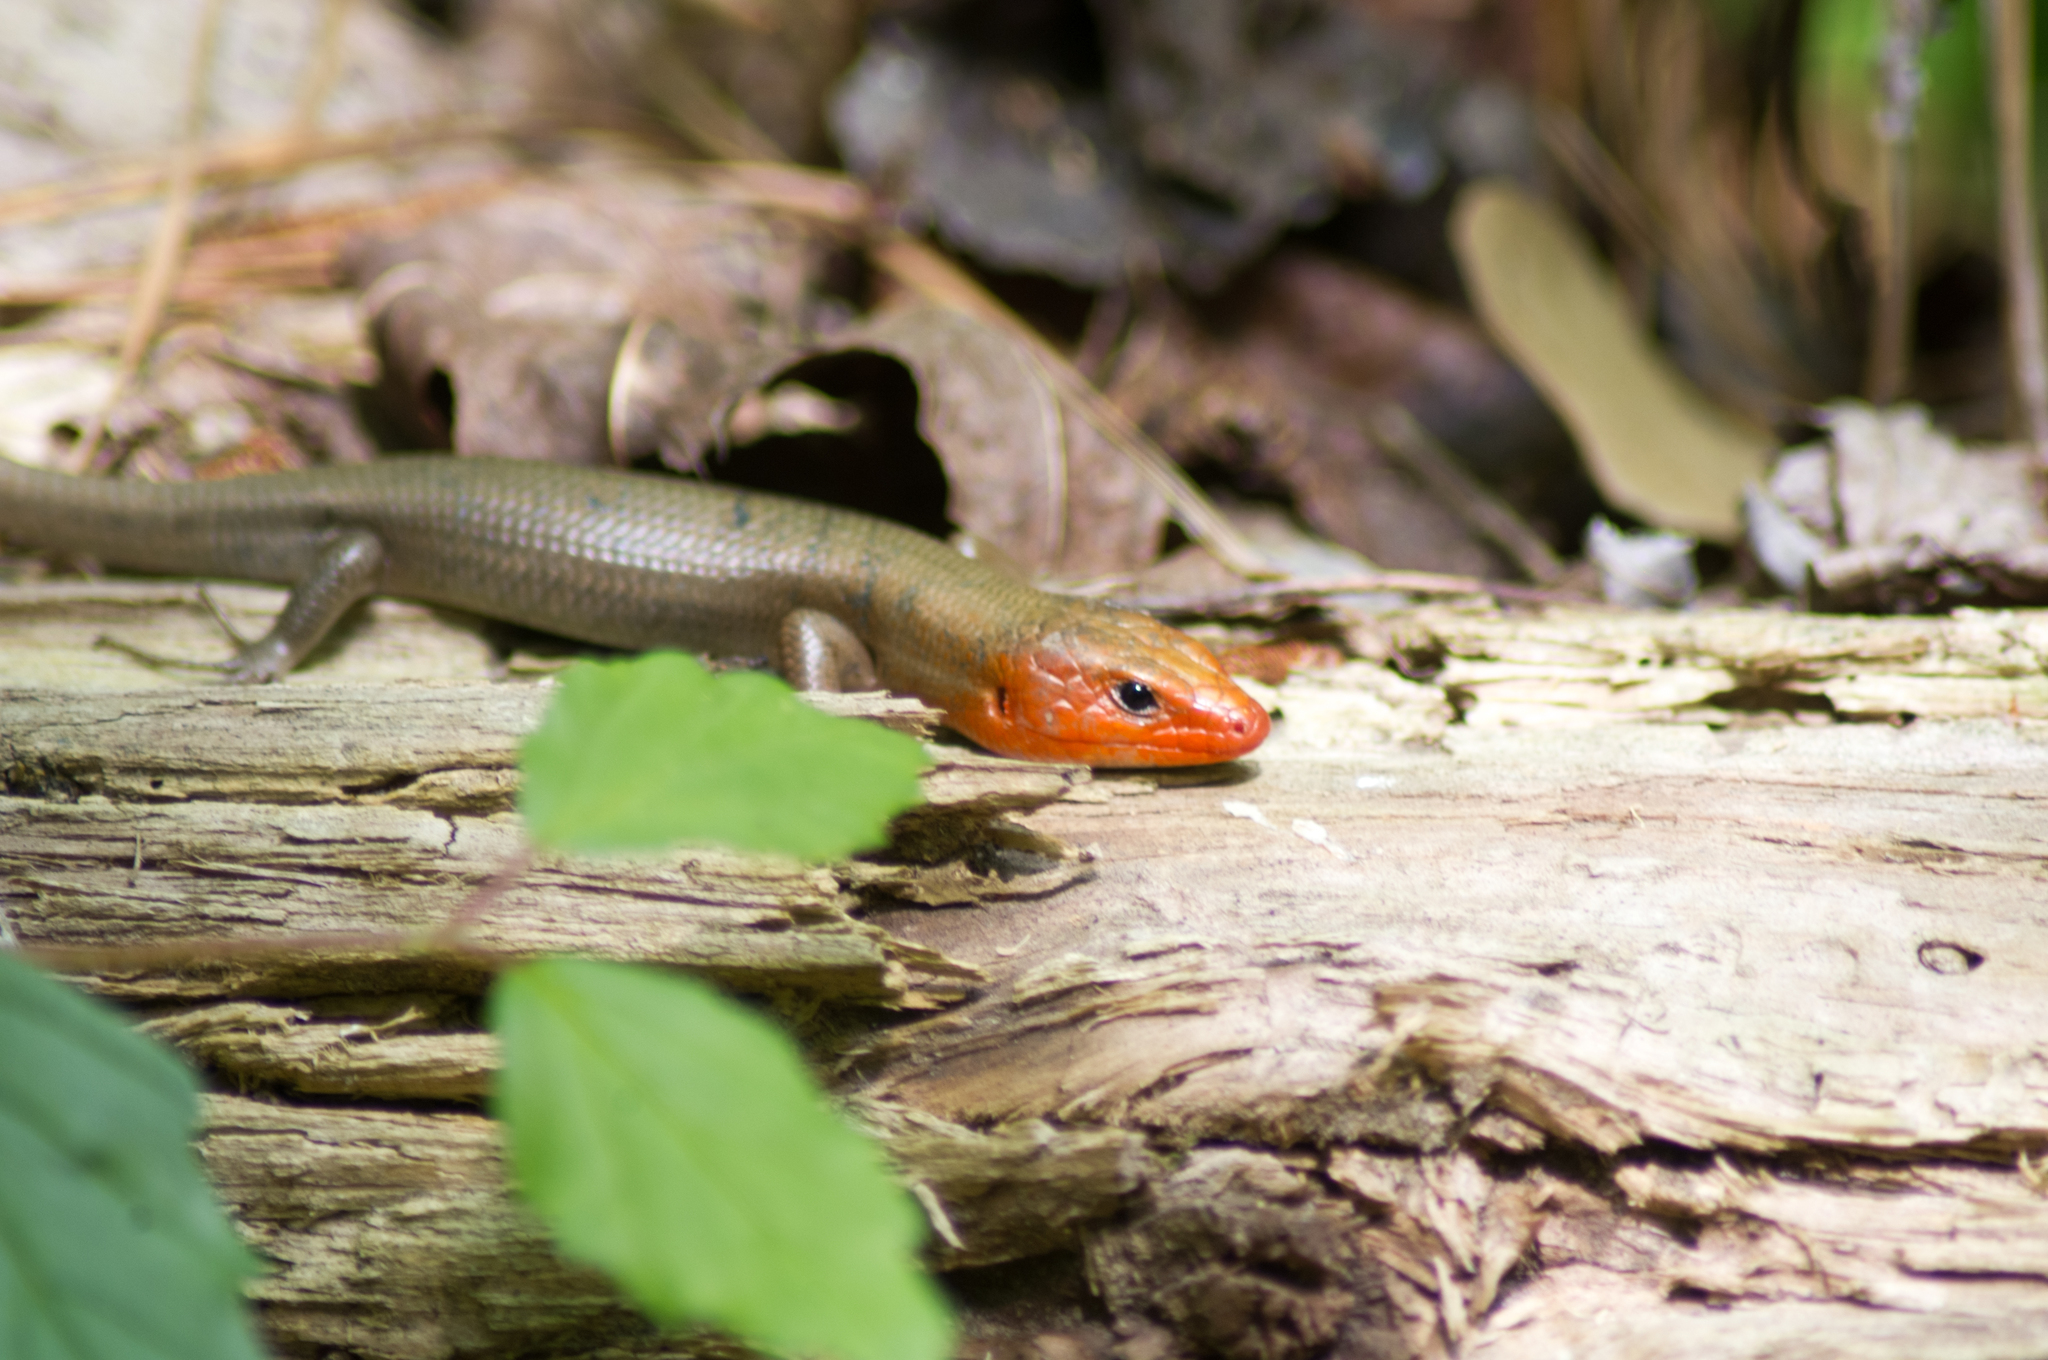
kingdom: Animalia
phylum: Chordata
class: Squamata
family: Scincidae
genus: Plestiodon
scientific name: Plestiodon laticeps
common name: Broadhead skink
